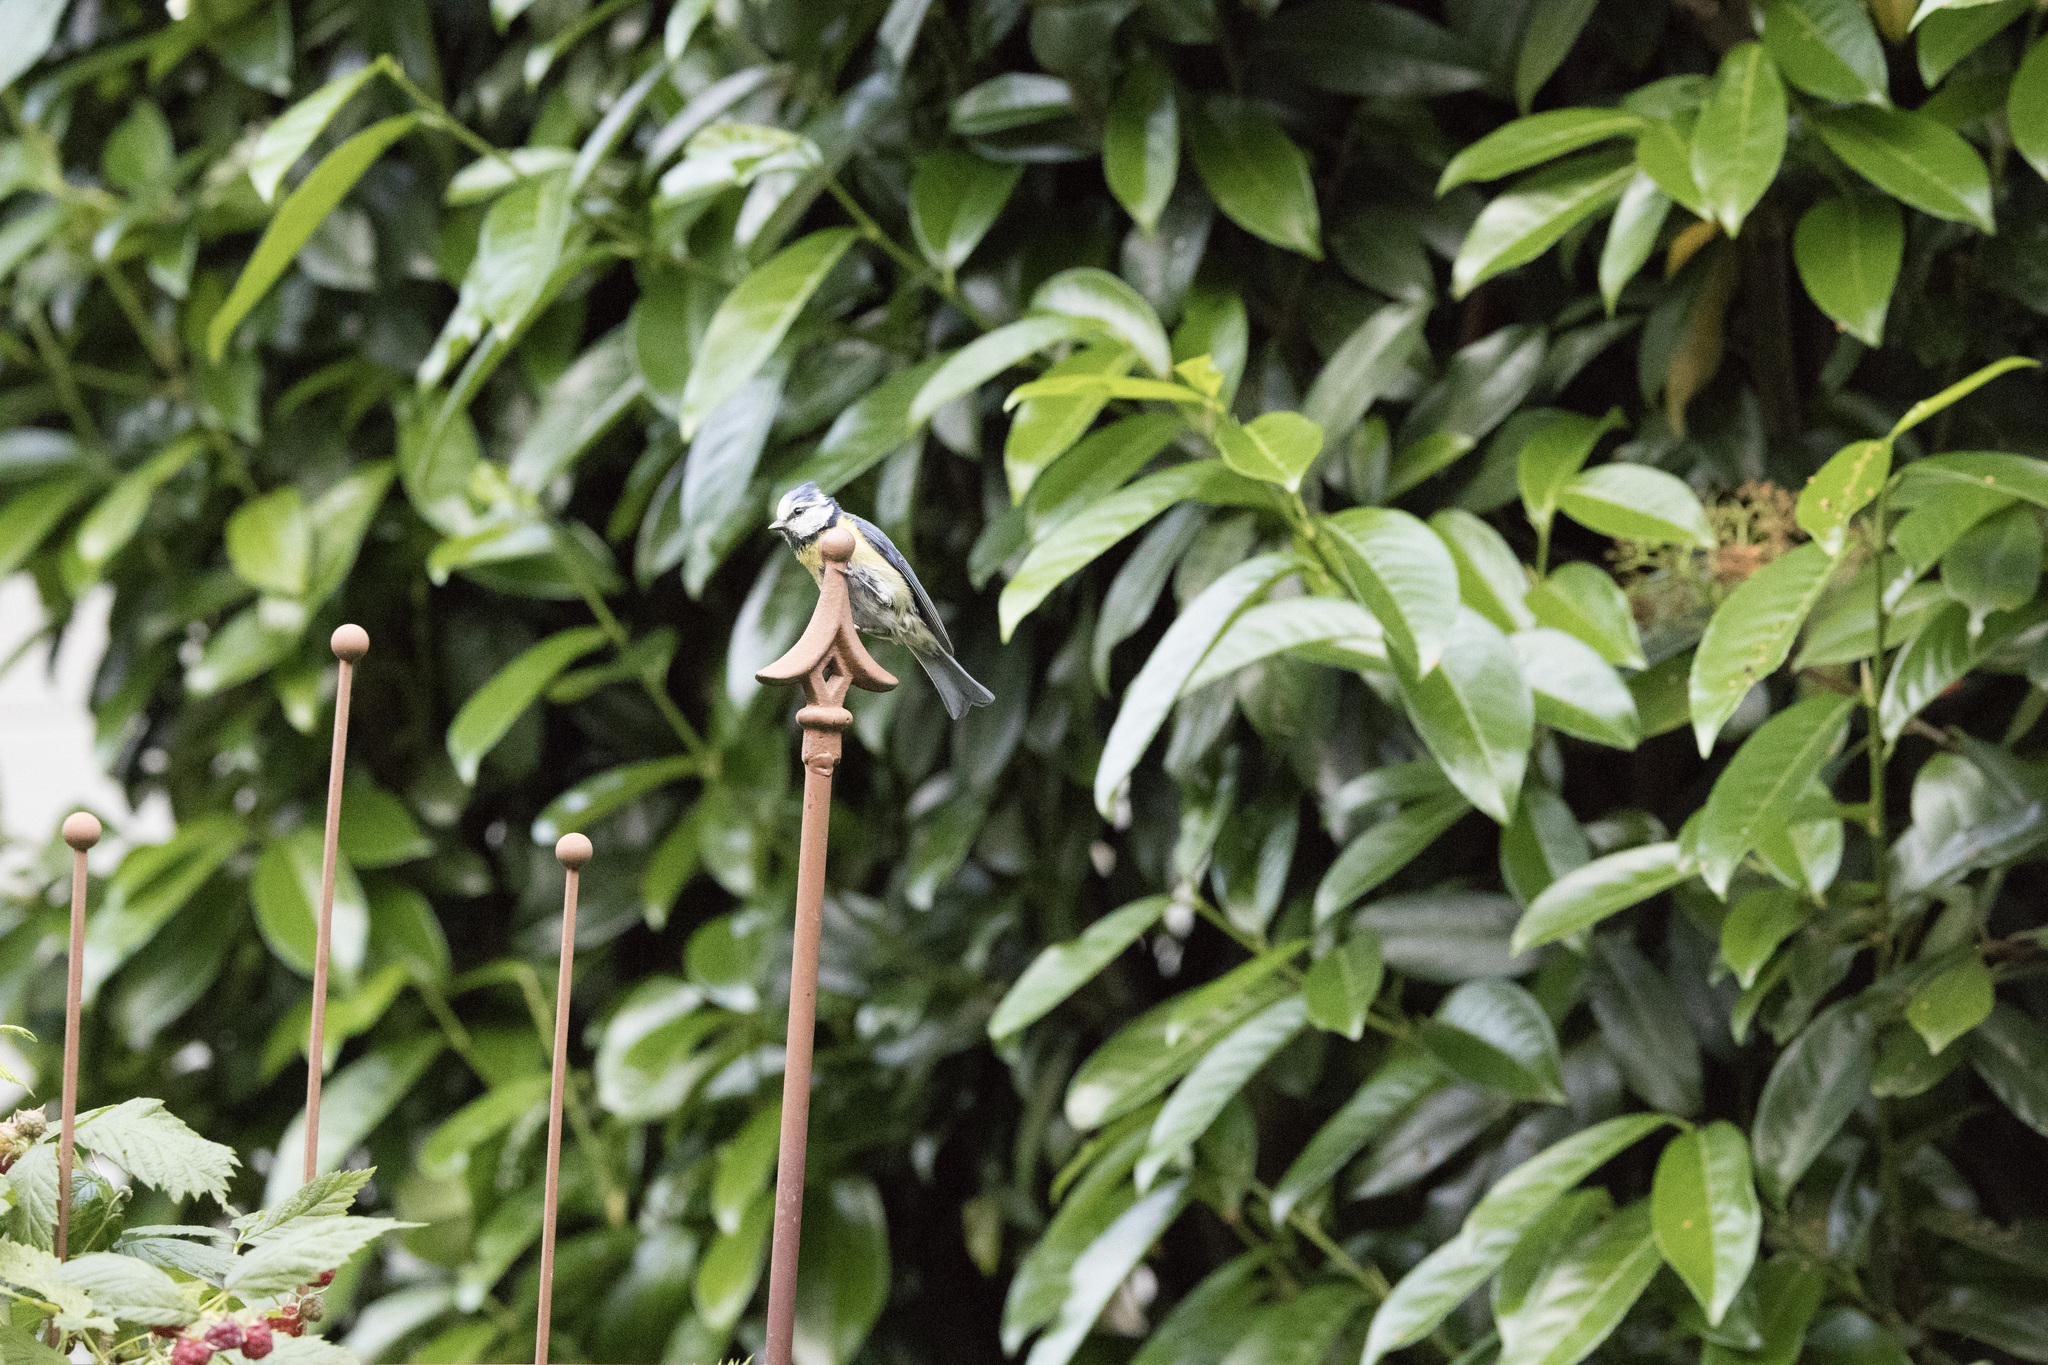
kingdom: Animalia
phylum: Chordata
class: Aves
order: Passeriformes
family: Paridae
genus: Cyanistes
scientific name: Cyanistes caeruleus
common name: Eurasian blue tit
